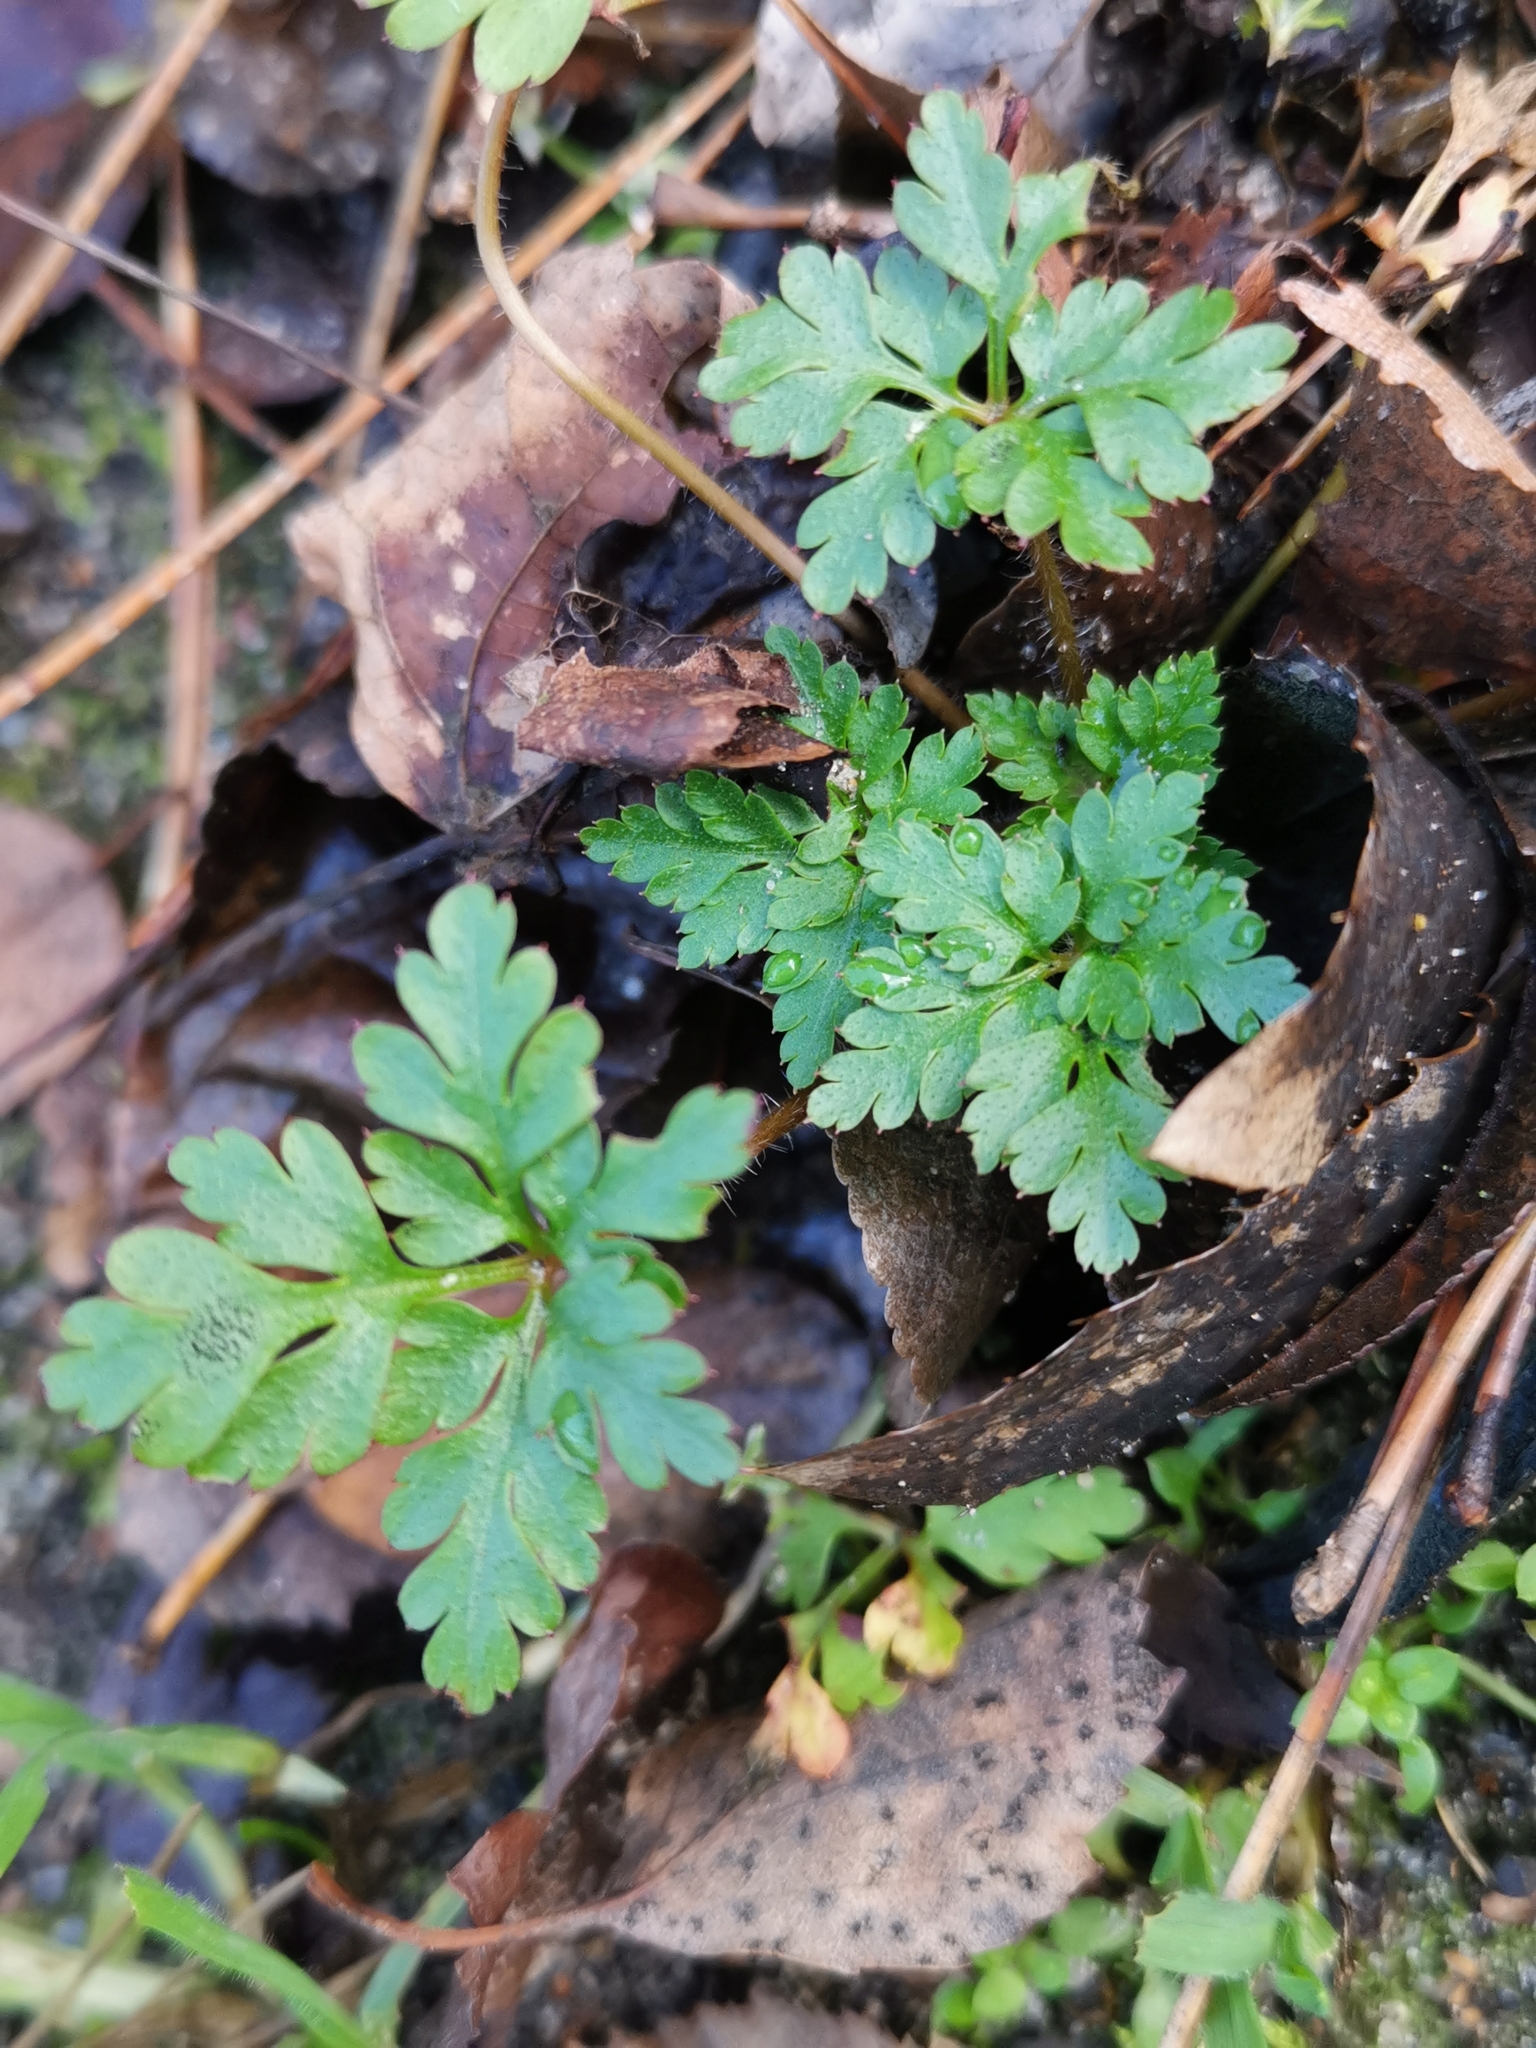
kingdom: Plantae
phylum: Tracheophyta
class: Magnoliopsida
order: Geraniales
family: Geraniaceae
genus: Geranium
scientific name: Geranium robertianum
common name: Herb-robert
